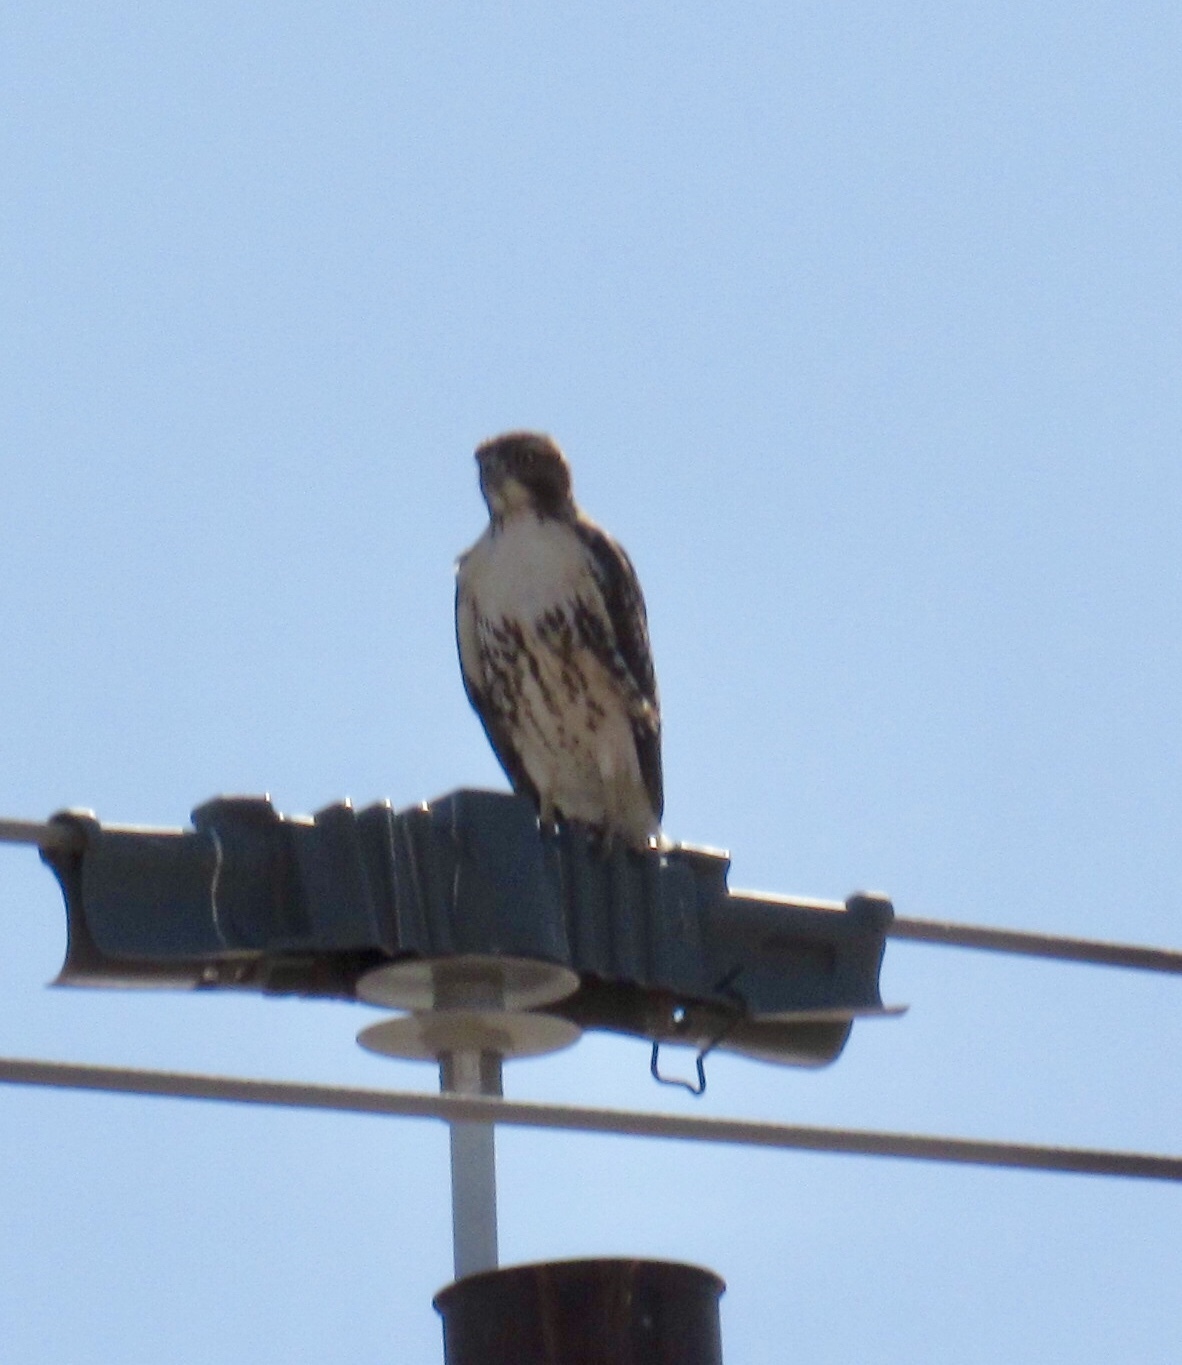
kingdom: Animalia
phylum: Chordata
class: Aves
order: Accipitriformes
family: Accipitridae
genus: Buteo
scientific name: Buteo jamaicensis
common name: Red-tailed hawk
